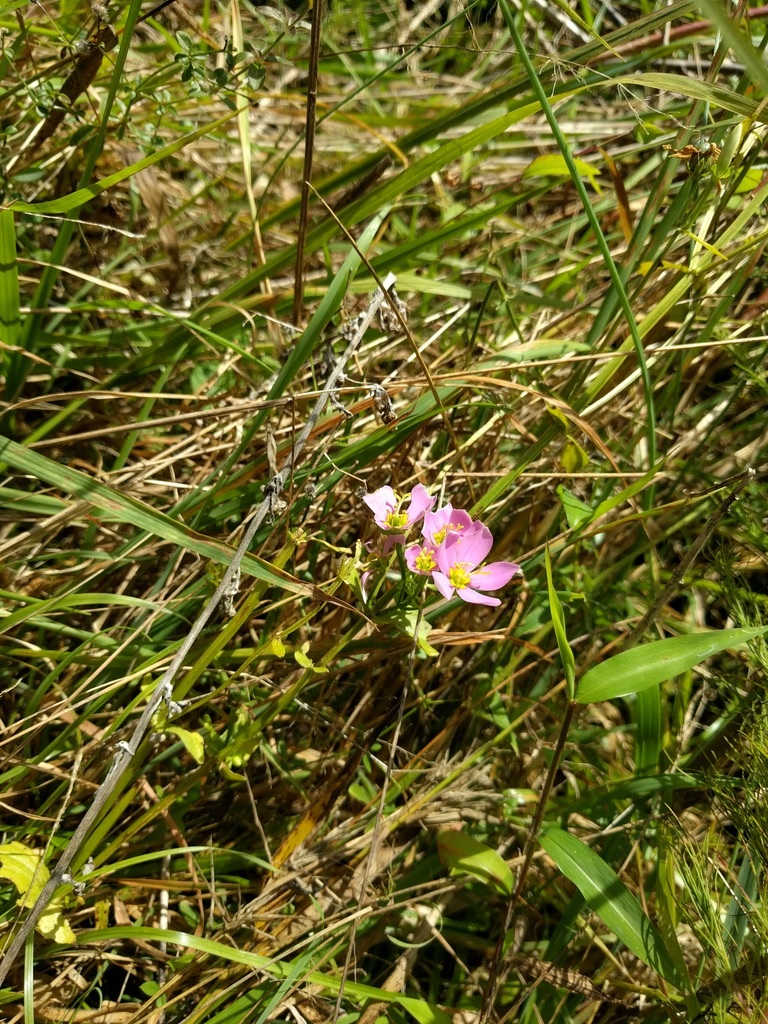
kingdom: Plantae
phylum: Tracheophyta
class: Magnoliopsida
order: Gentianales
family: Gentianaceae
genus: Sabatia
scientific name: Sabatia angularis
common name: Rose-pink
